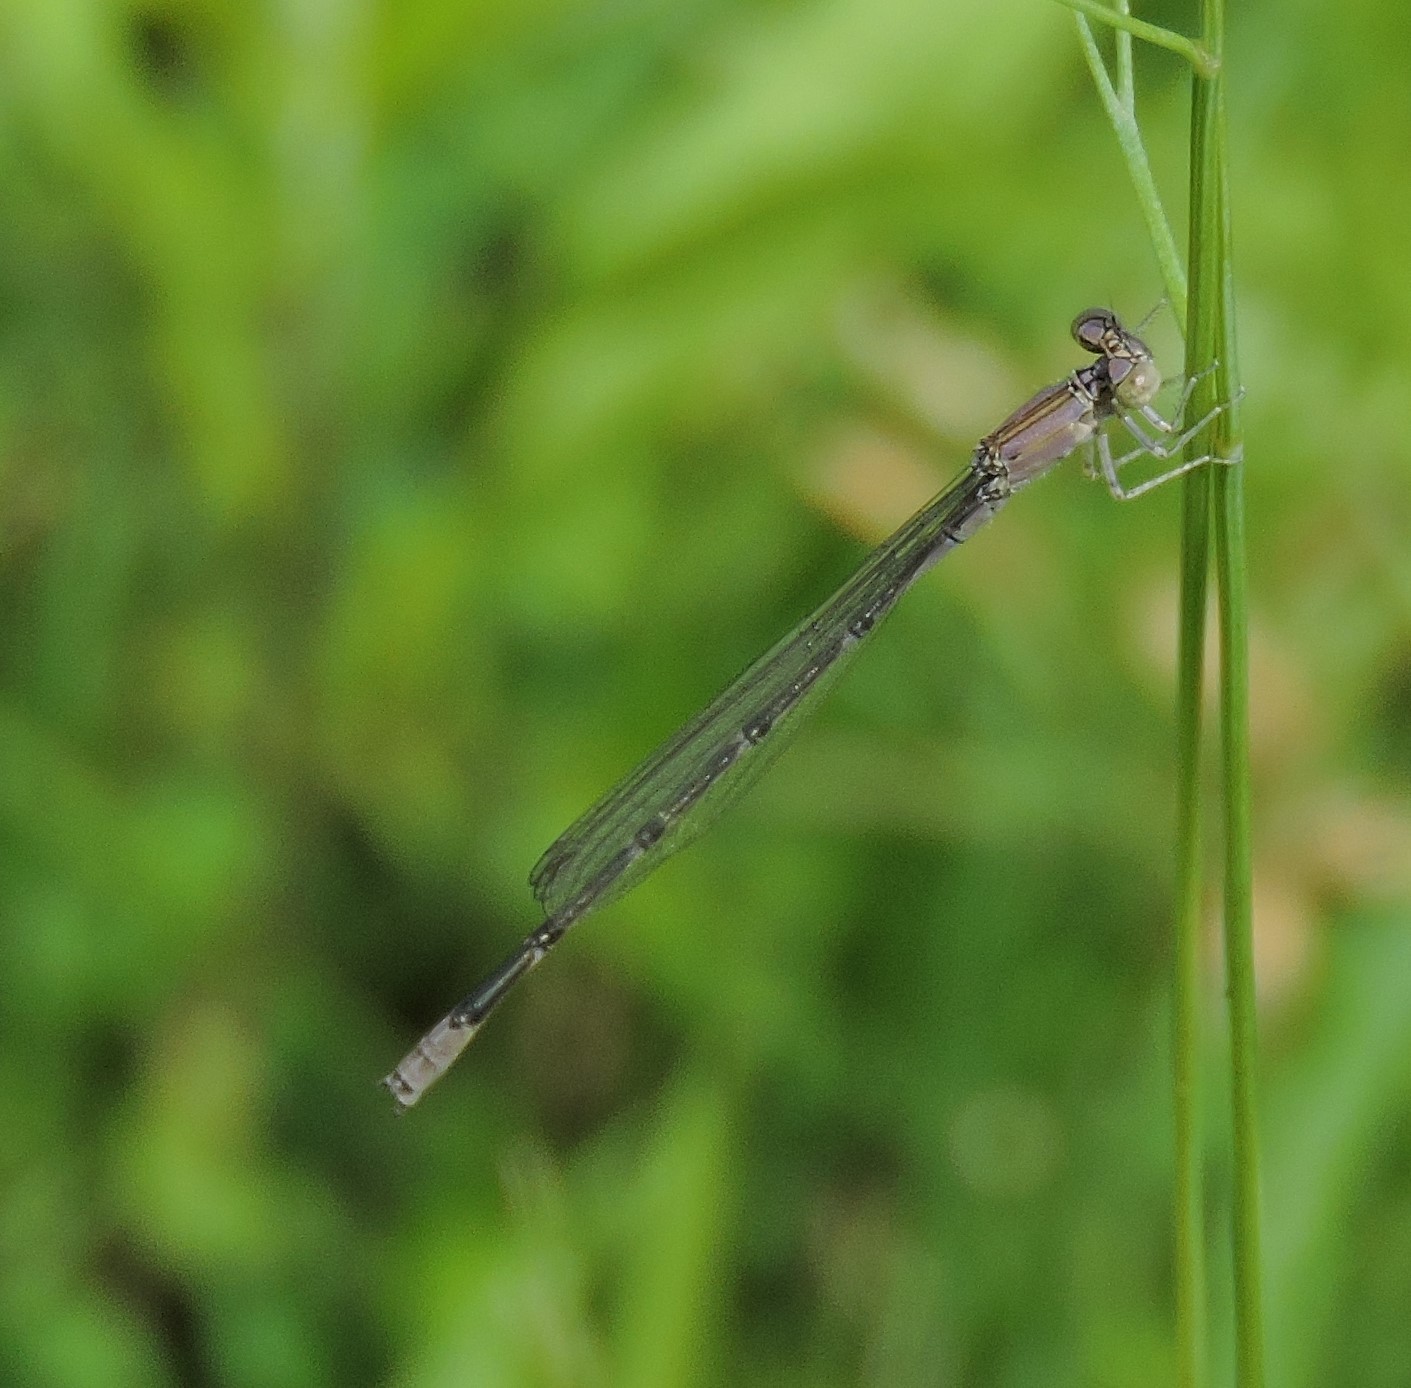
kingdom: Animalia
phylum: Arthropoda
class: Insecta
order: Odonata
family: Coenagrionidae
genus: Enallagma
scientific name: Enallagma traviatum
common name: Slender bluet
